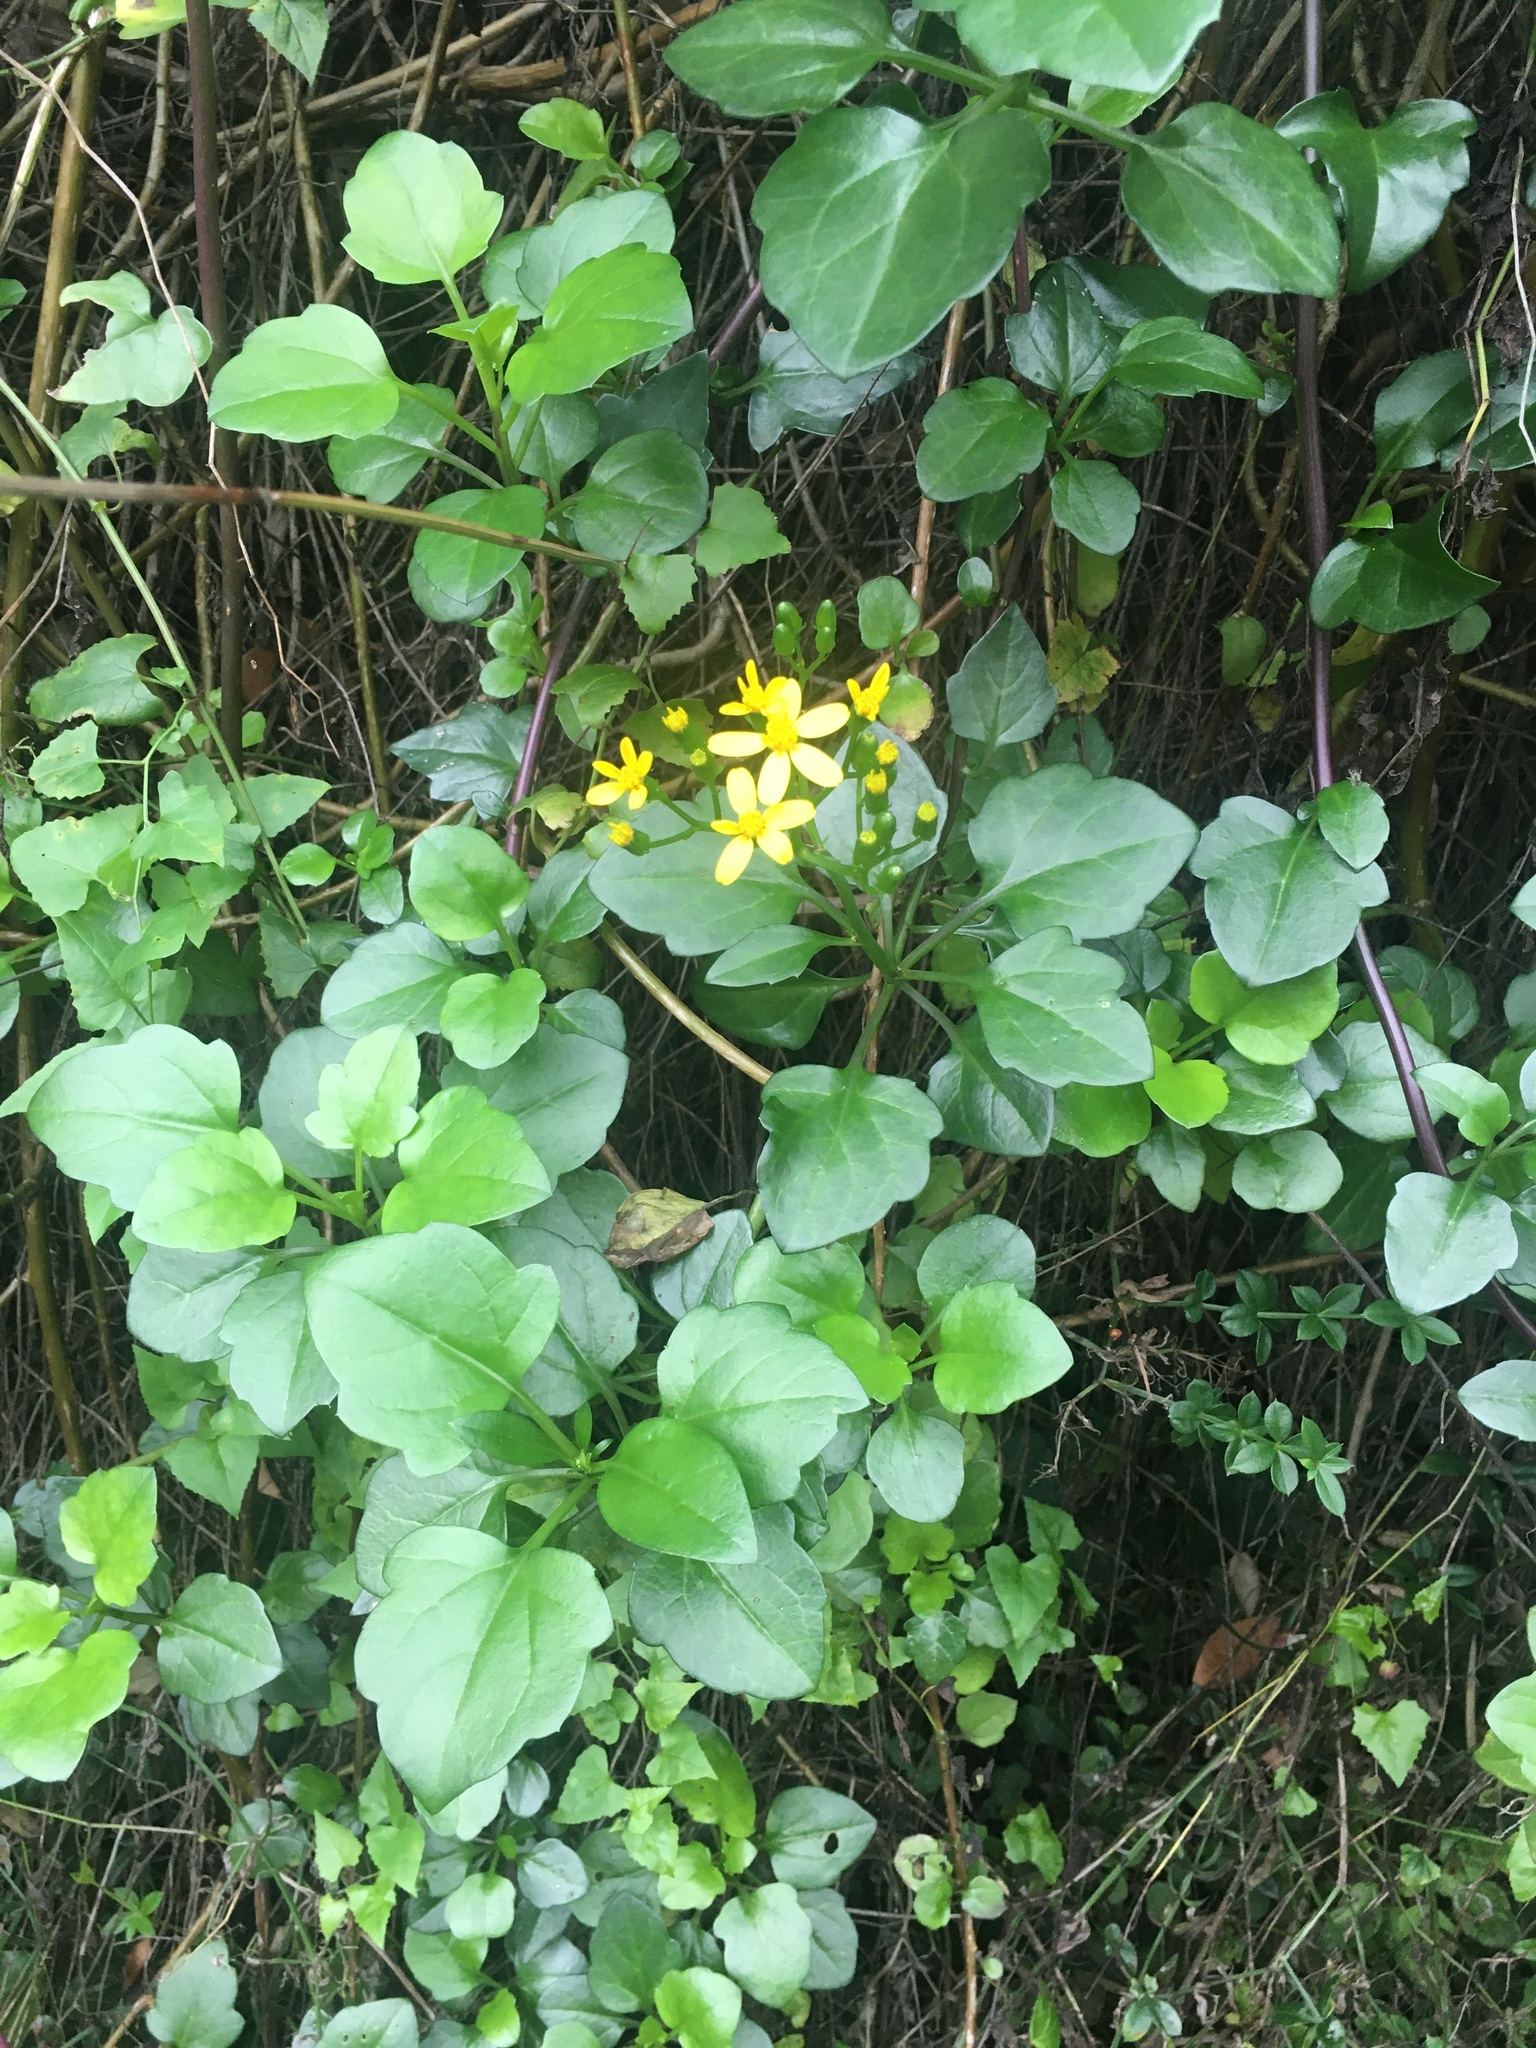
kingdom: Plantae
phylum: Tracheophyta
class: Magnoliopsida
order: Asterales
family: Asteraceae
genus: Senecio
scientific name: Senecio angulatus
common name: Climbing groundsel
